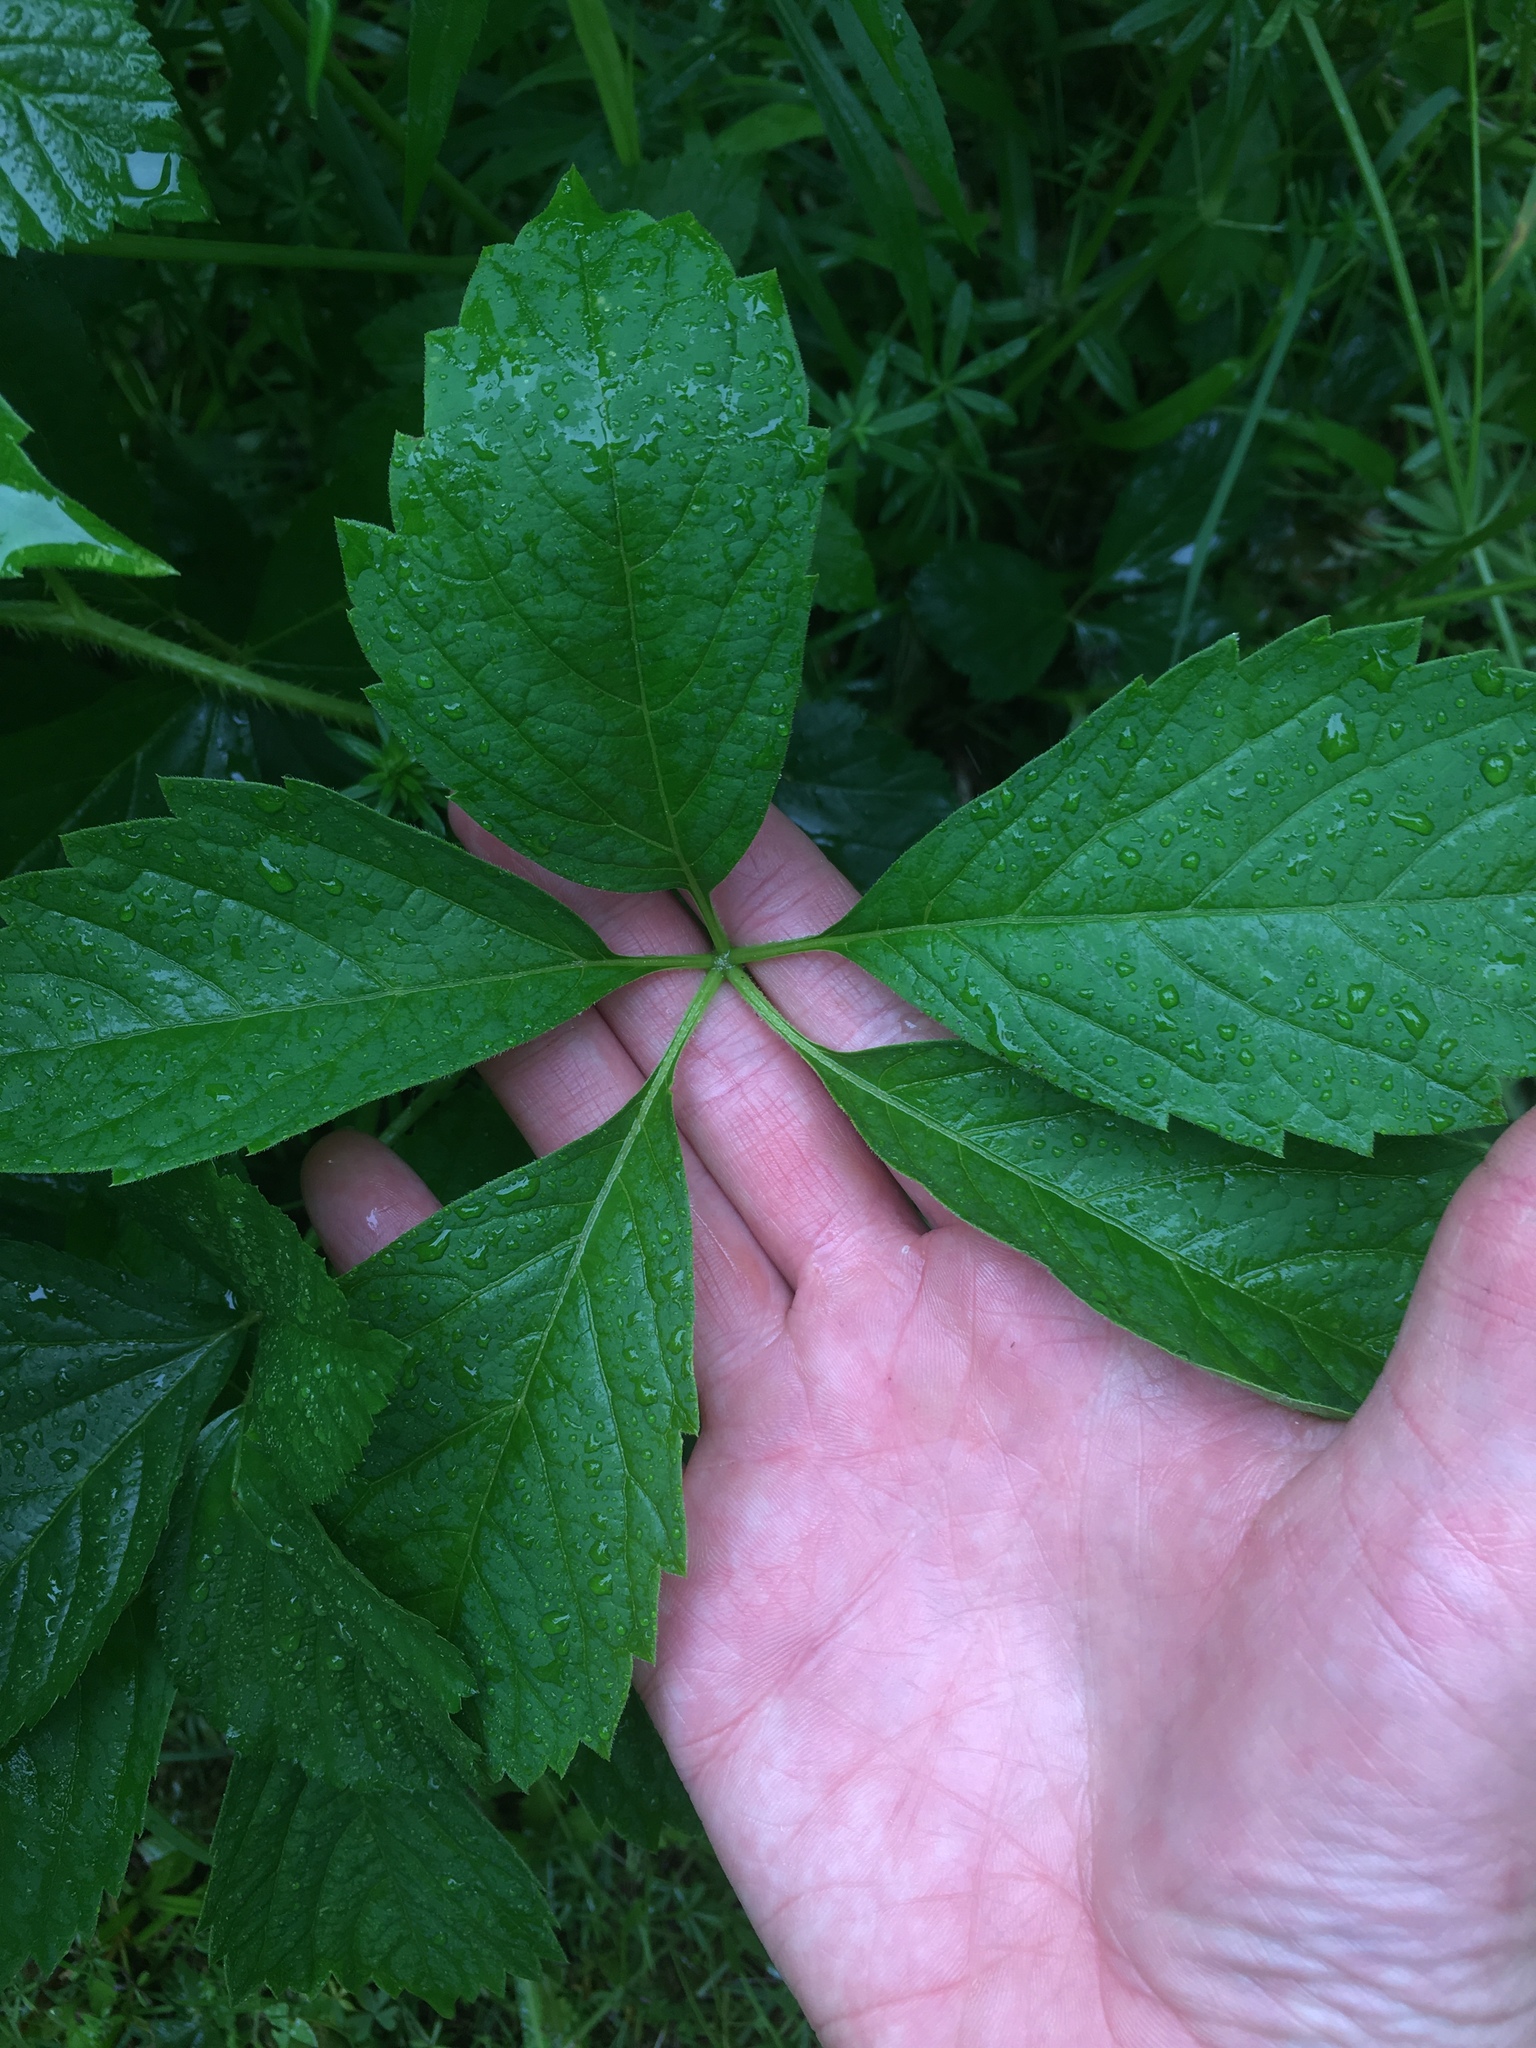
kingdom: Plantae
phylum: Tracheophyta
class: Magnoliopsida
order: Vitales
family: Vitaceae
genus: Parthenocissus
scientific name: Parthenocissus inserta
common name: False virginia-creeper
